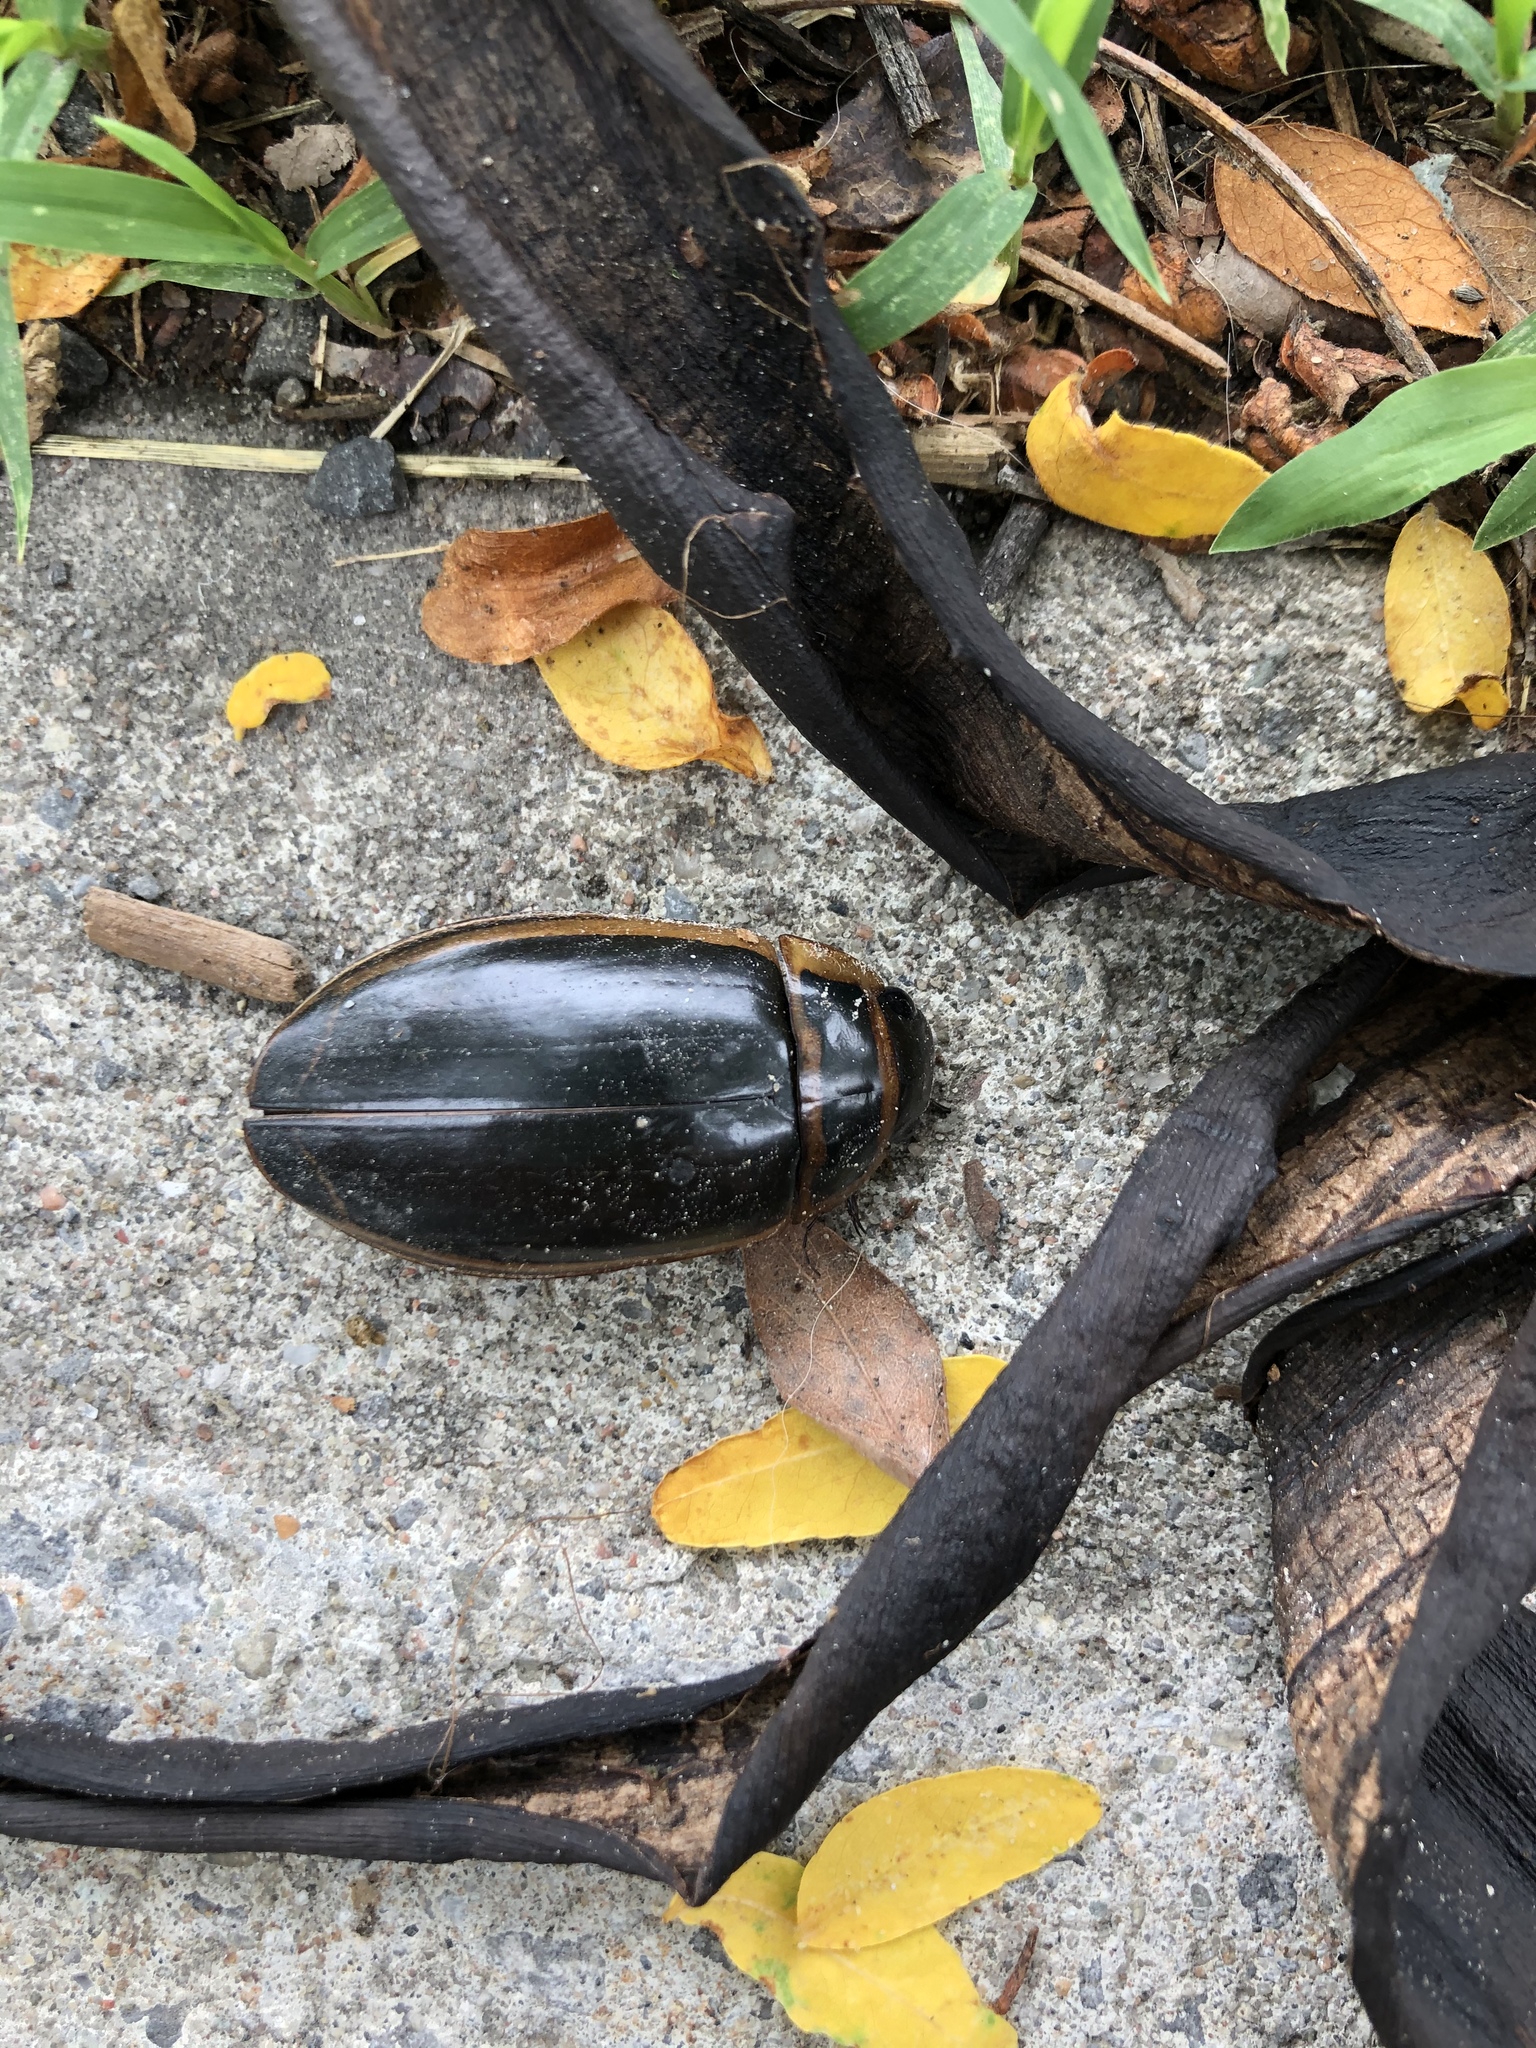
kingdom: Animalia
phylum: Arthropoda
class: Insecta
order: Coleoptera
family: Dytiscidae
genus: Dytiscus
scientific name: Dytiscus
